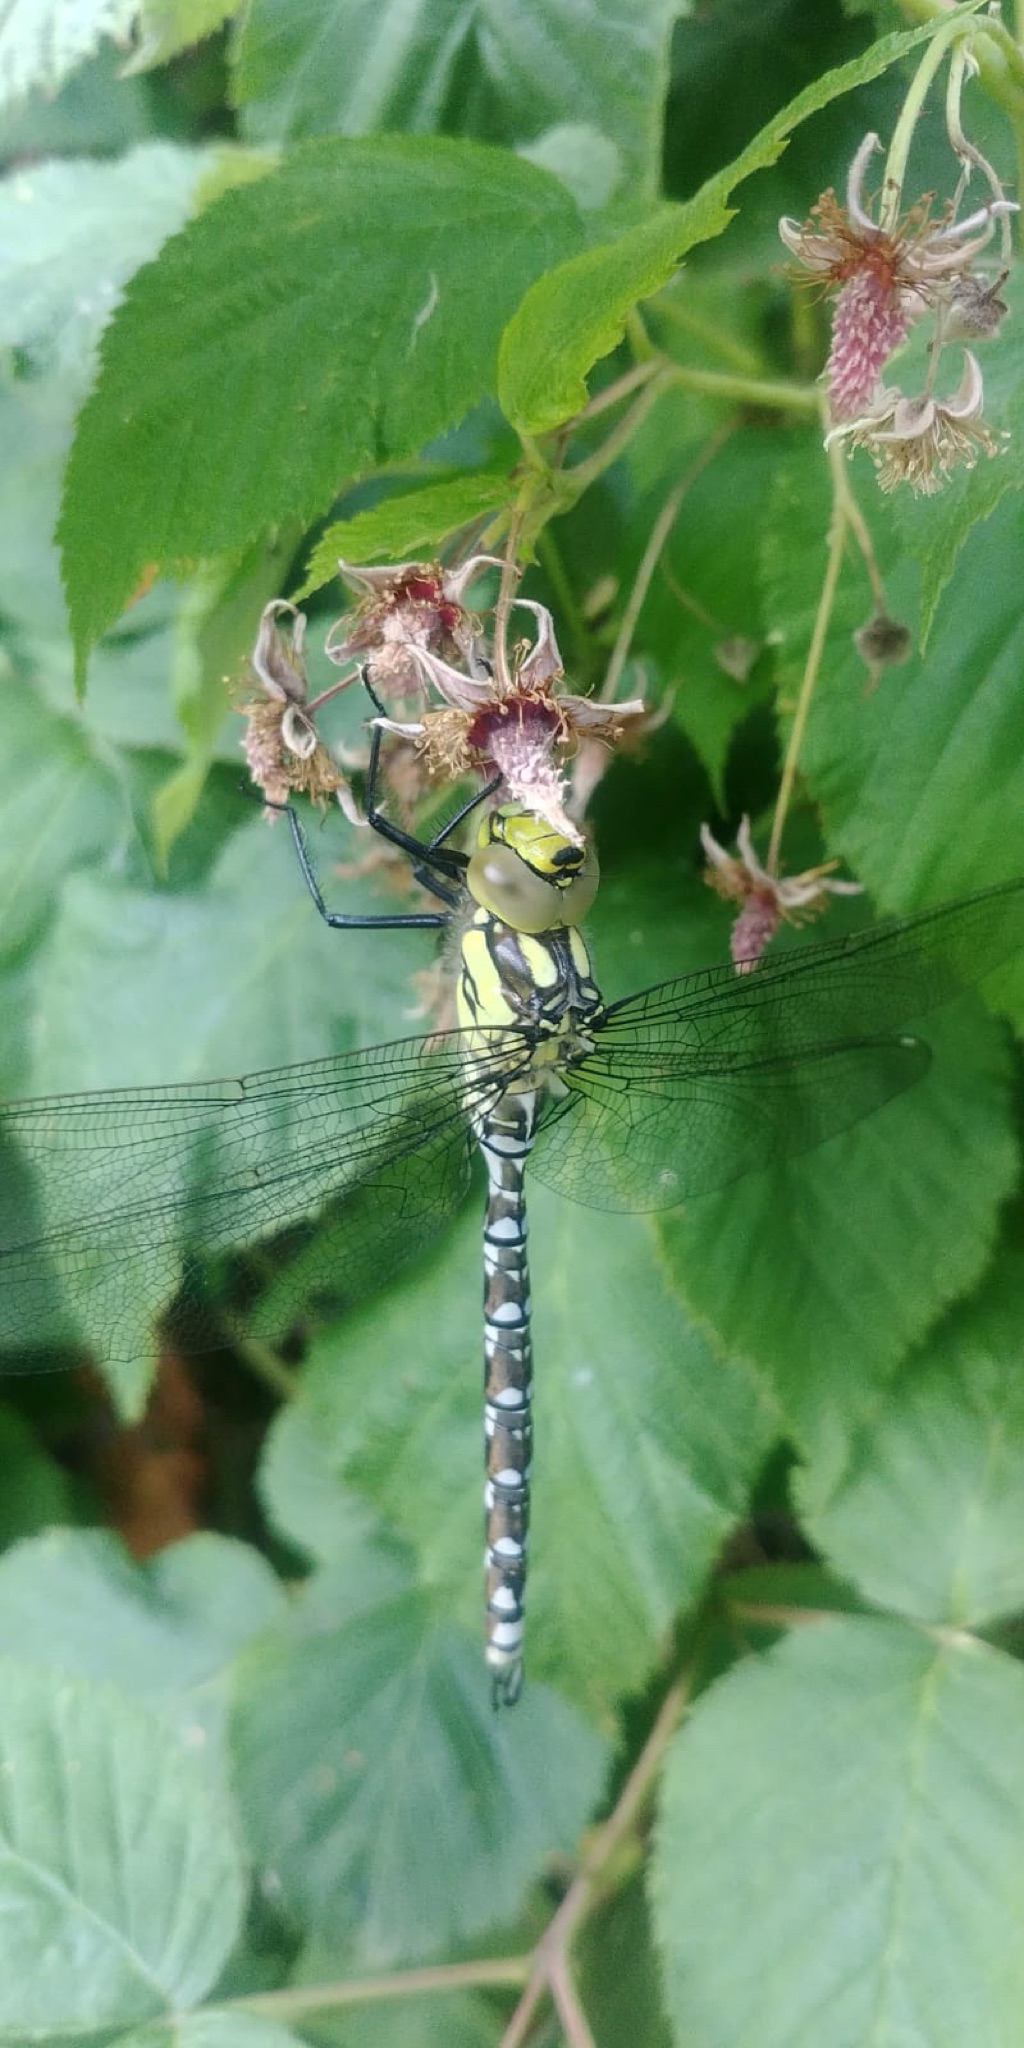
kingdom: Animalia
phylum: Arthropoda
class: Insecta
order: Odonata
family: Aeshnidae
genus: Aeshna
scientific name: Aeshna cyanea
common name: Southern hawker
